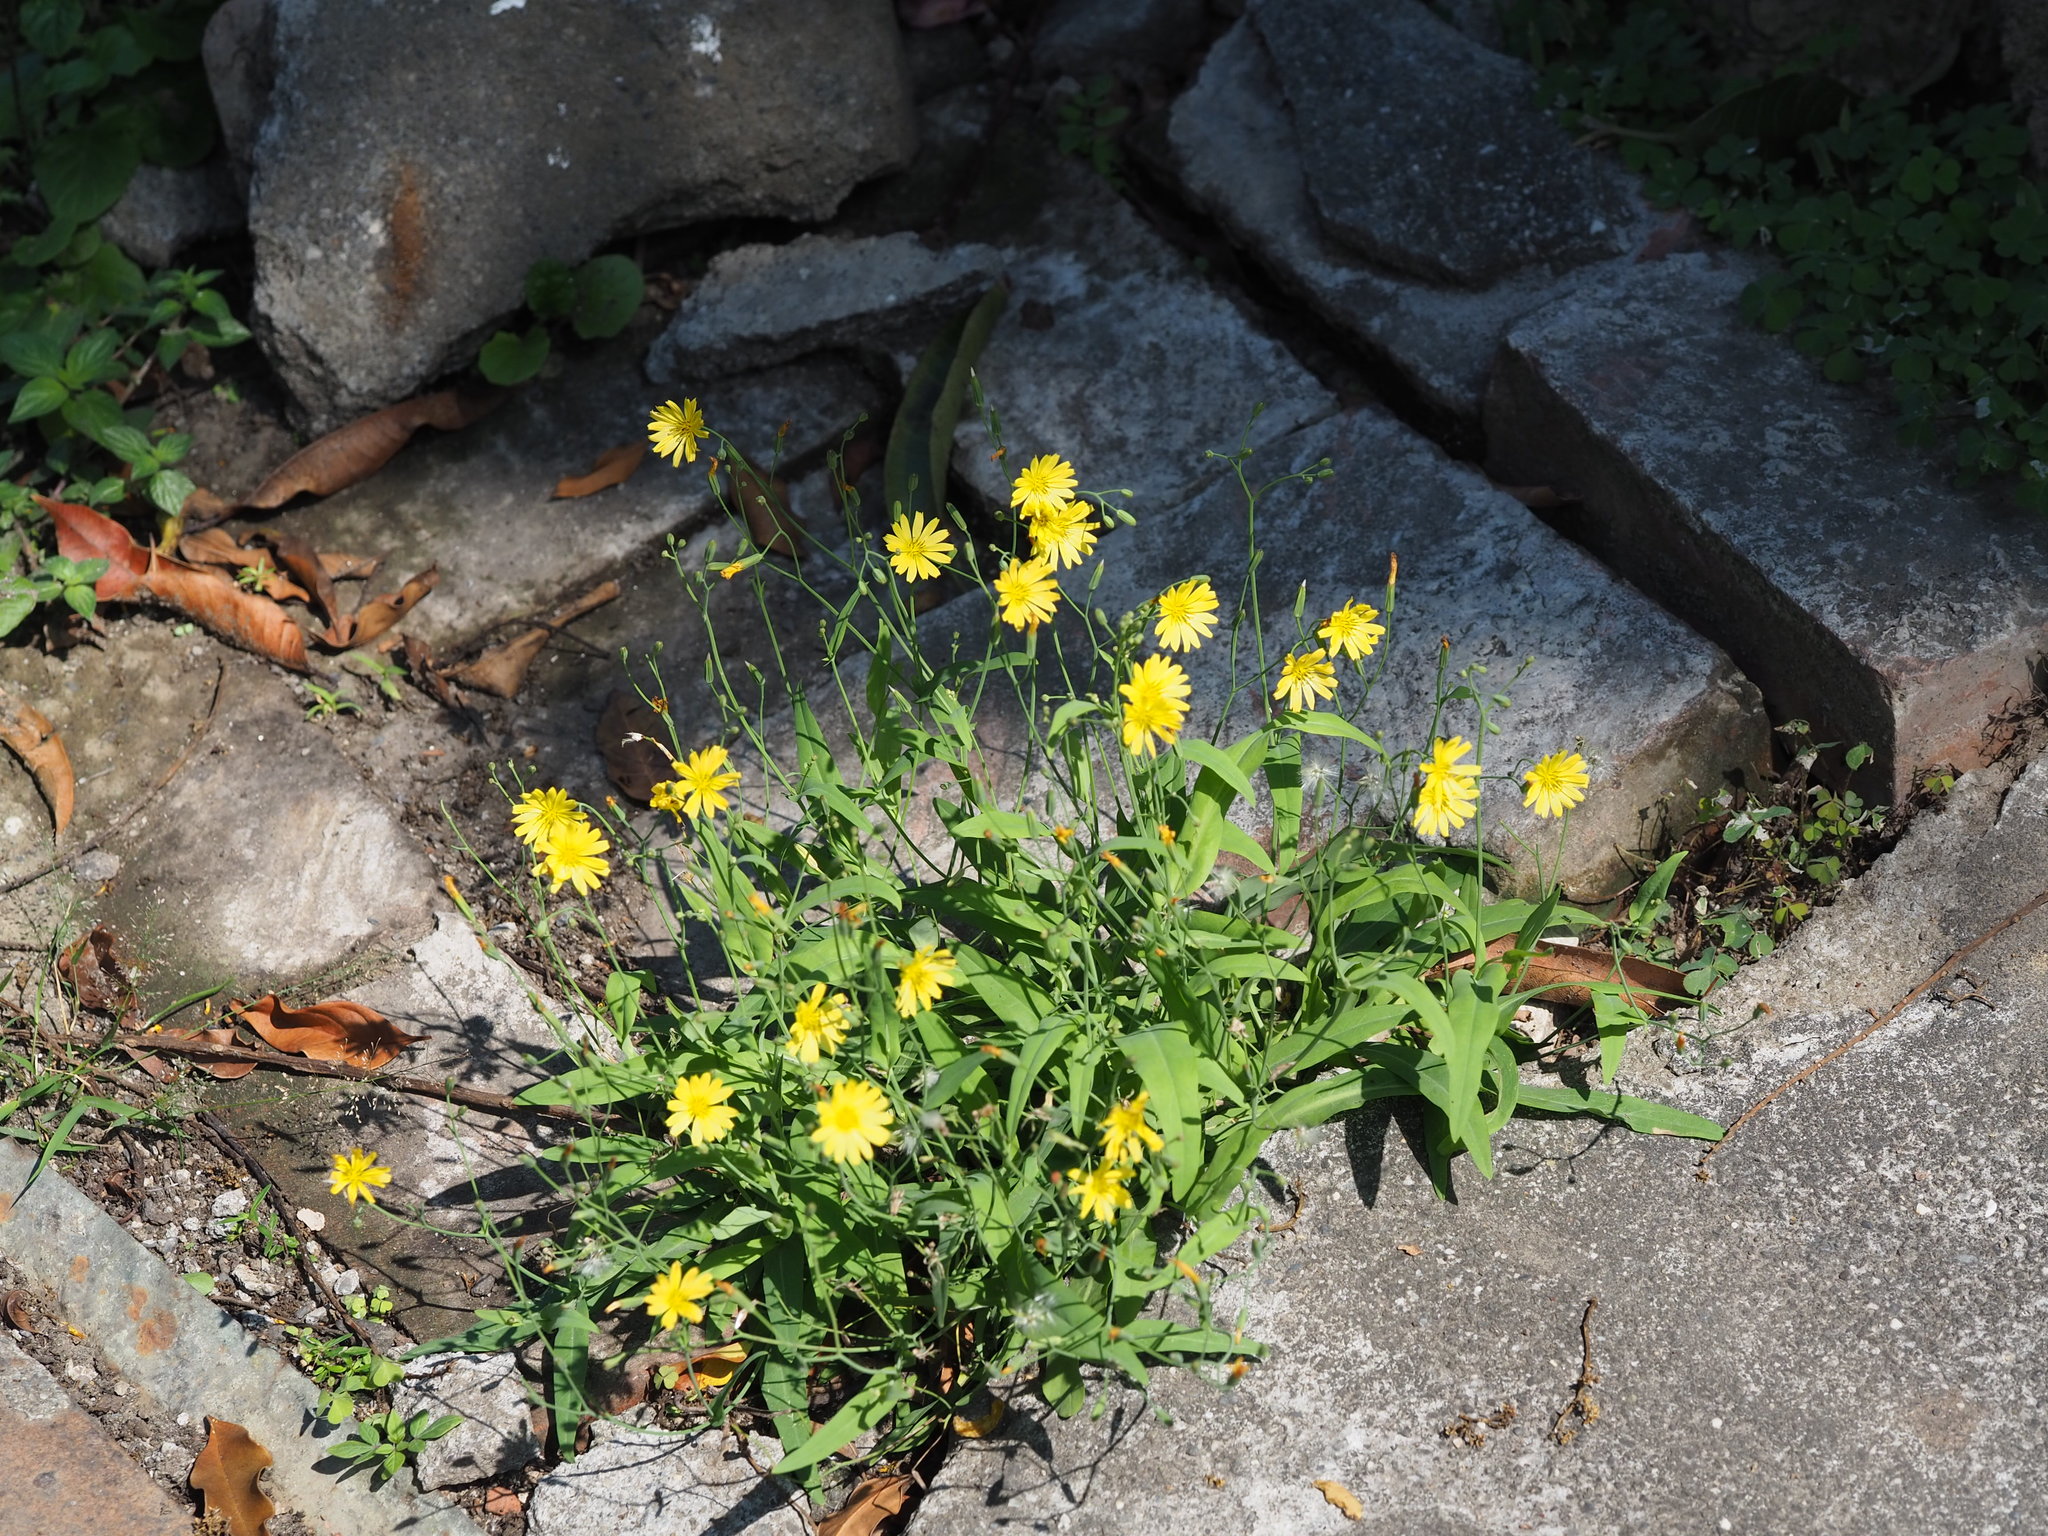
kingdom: Plantae
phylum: Tracheophyta
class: Magnoliopsida
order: Asterales
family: Asteraceae
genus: Ixeris
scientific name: Ixeris chinensis
